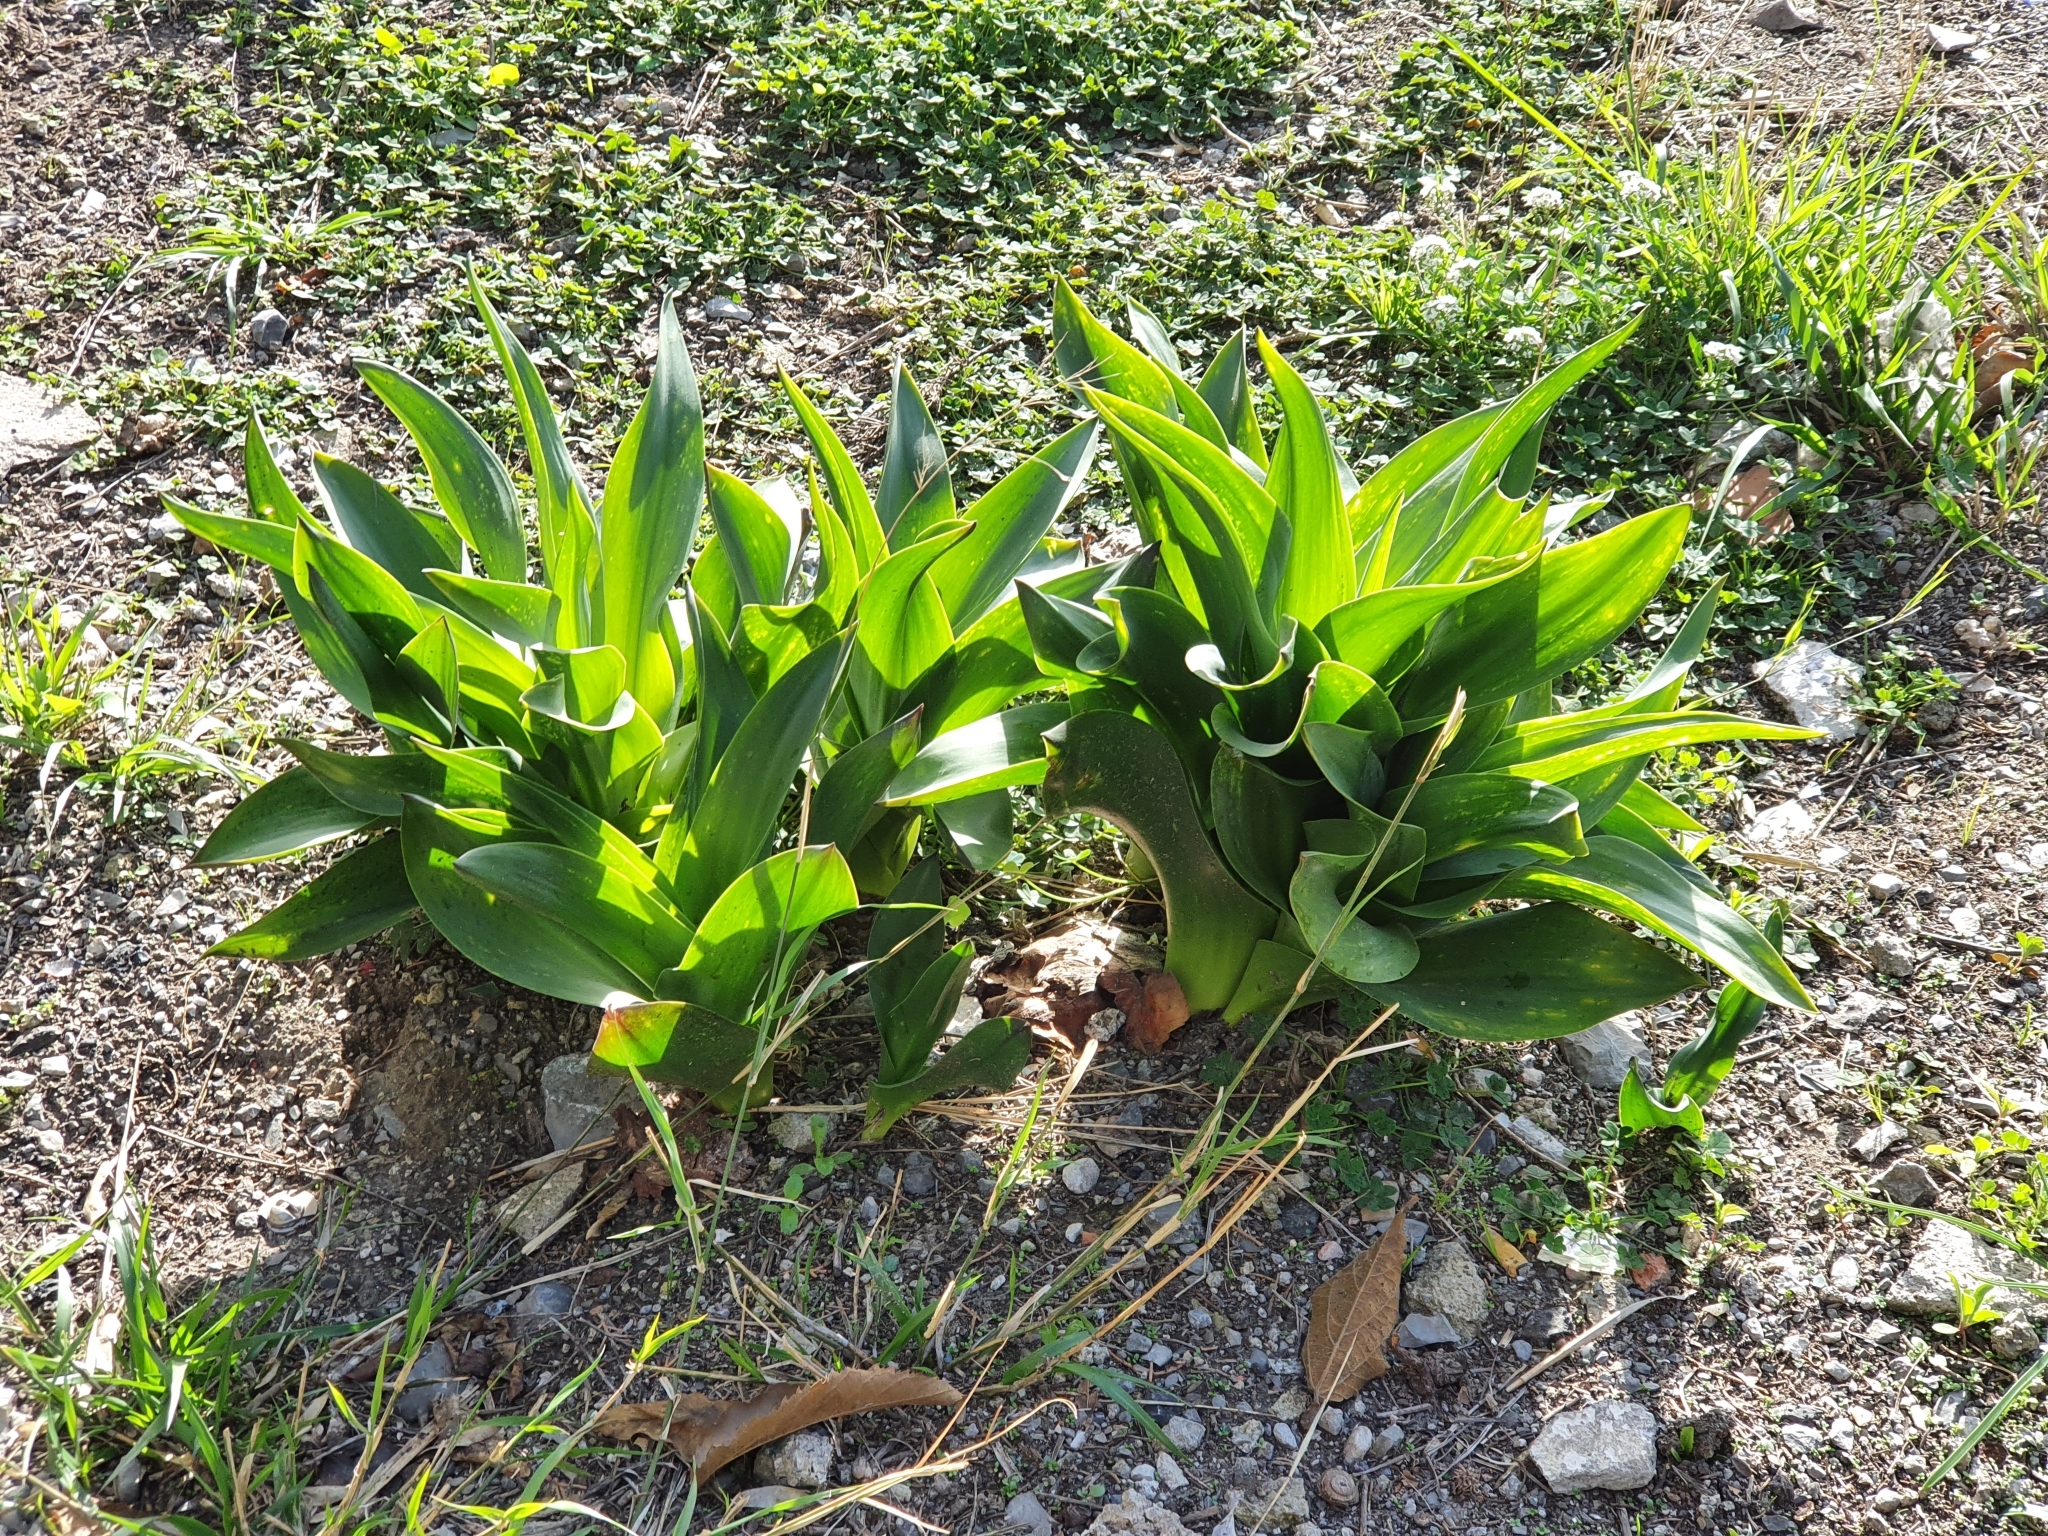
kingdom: Plantae
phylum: Tracheophyta
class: Liliopsida
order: Asparagales
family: Asparagaceae
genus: Drimia
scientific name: Drimia numidica
